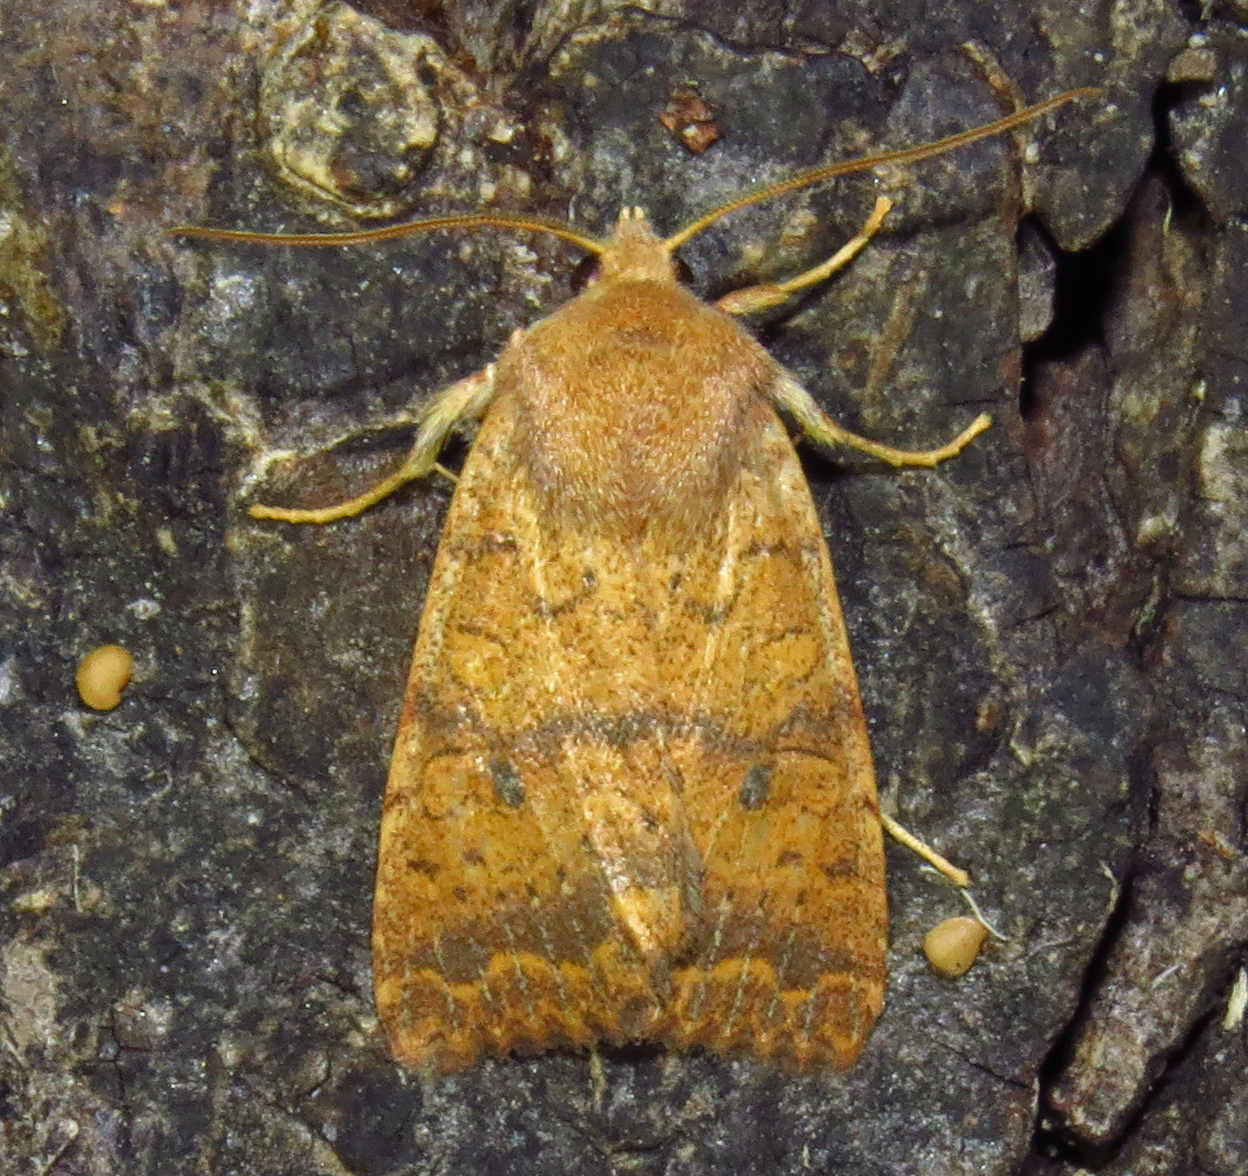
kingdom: Animalia
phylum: Arthropoda
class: Insecta
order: Lepidoptera
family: Noctuidae
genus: Agrochola
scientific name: Agrochola bicolorago
